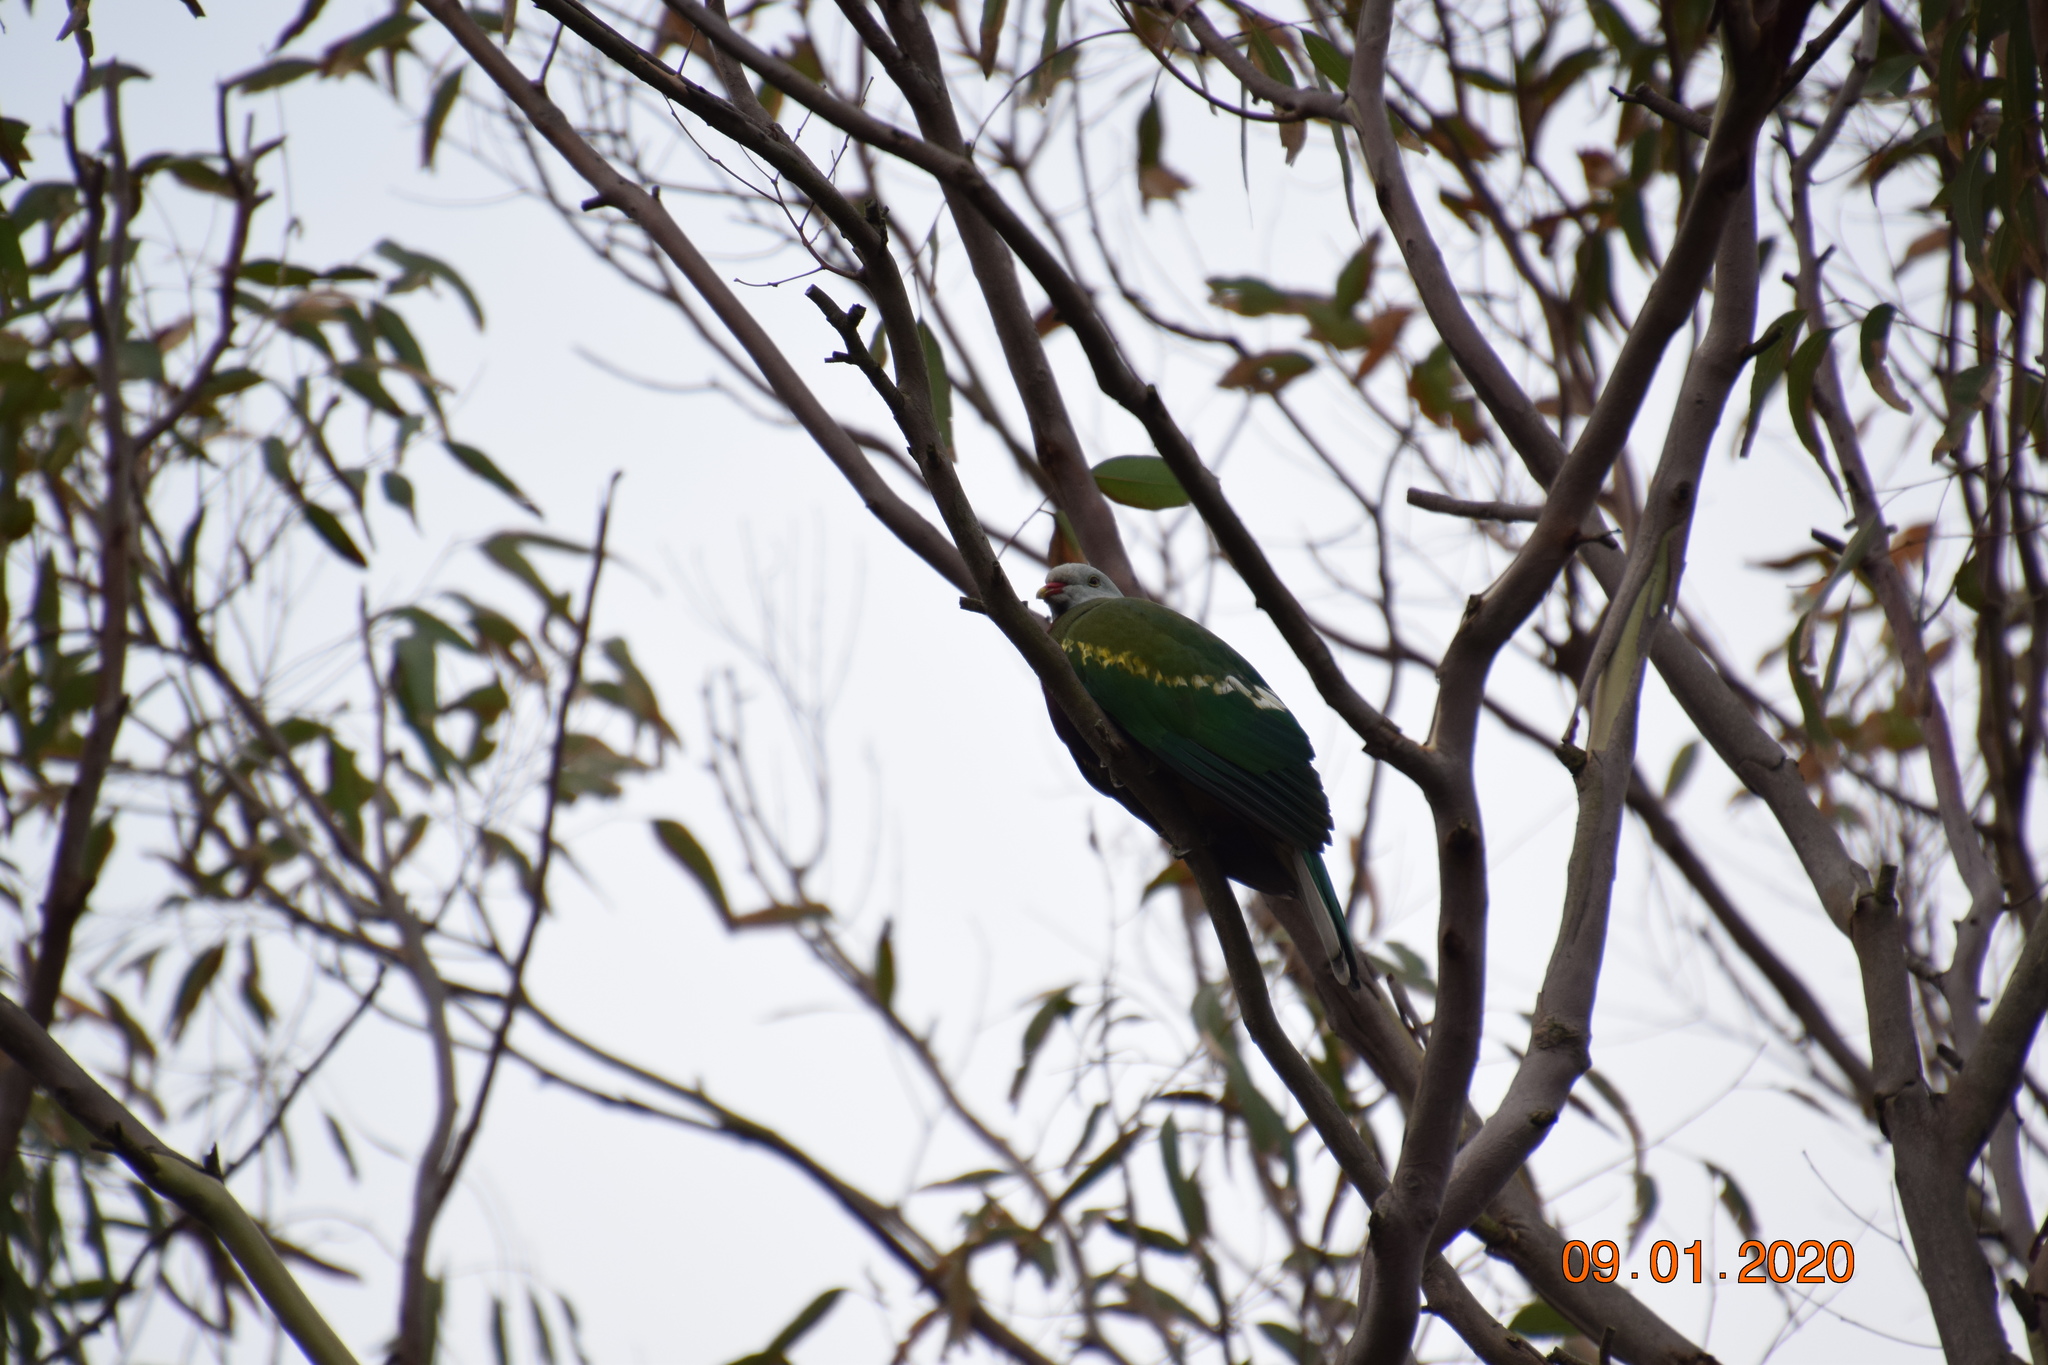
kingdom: Animalia
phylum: Chordata
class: Aves
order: Columbiformes
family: Columbidae
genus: Ptilinopus
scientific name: Ptilinopus magnificus
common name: Wompoo fruit dove
